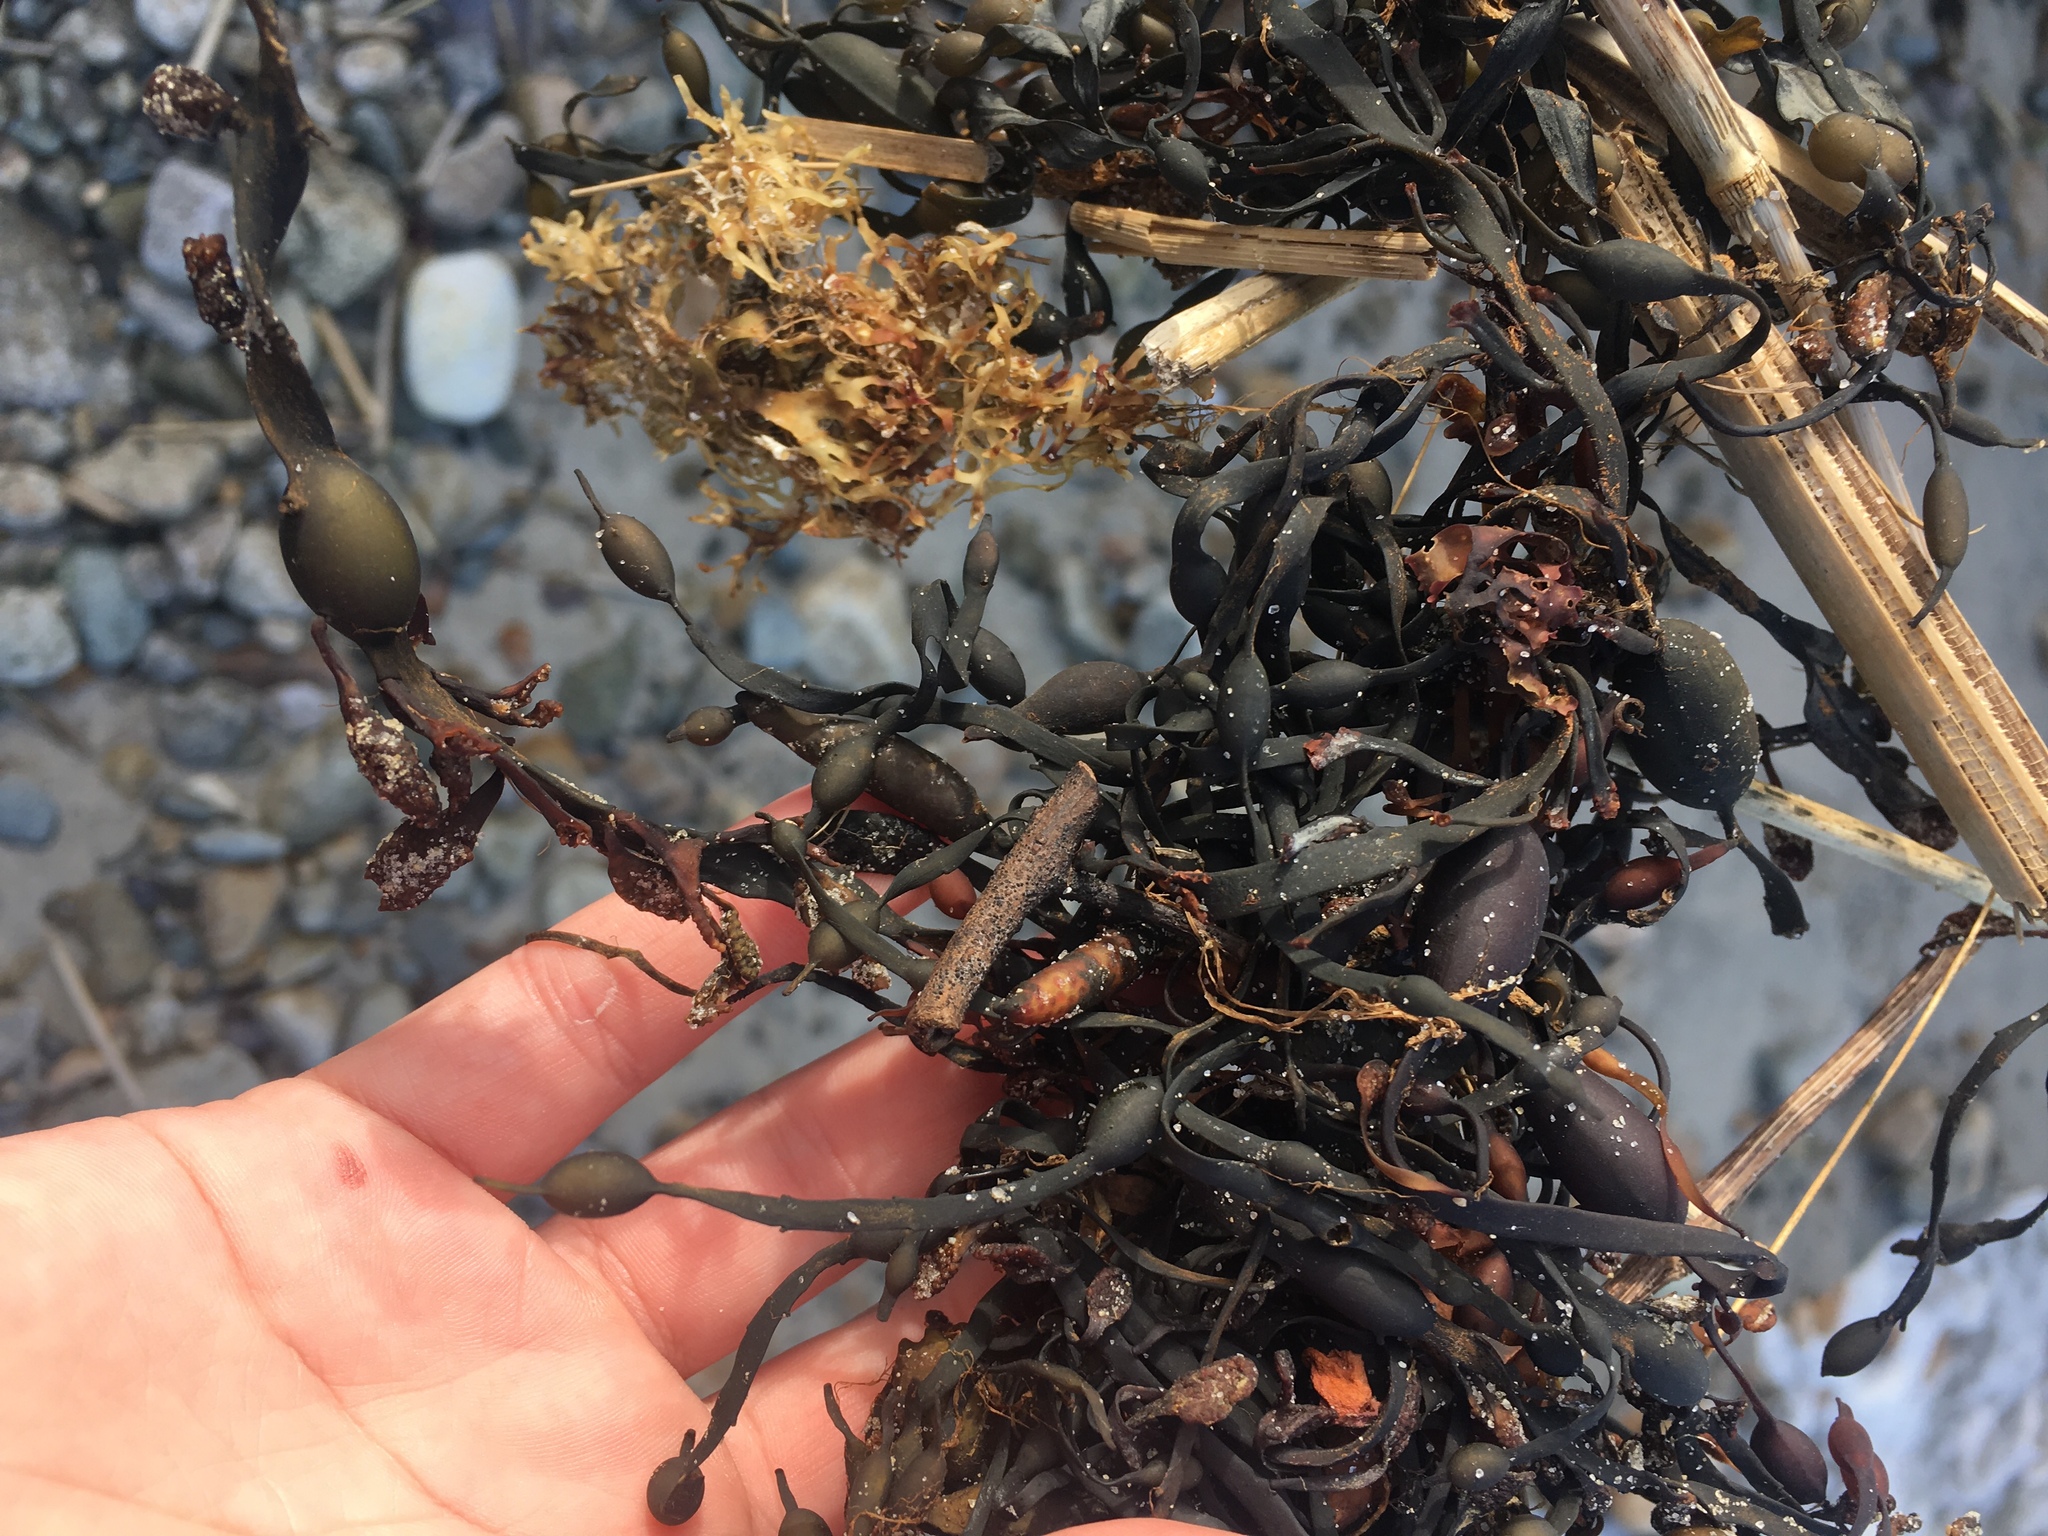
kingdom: Chromista
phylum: Ochrophyta
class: Phaeophyceae
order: Fucales
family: Fucaceae
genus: Ascophyllum
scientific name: Ascophyllum nodosum
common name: Knotted wrack
